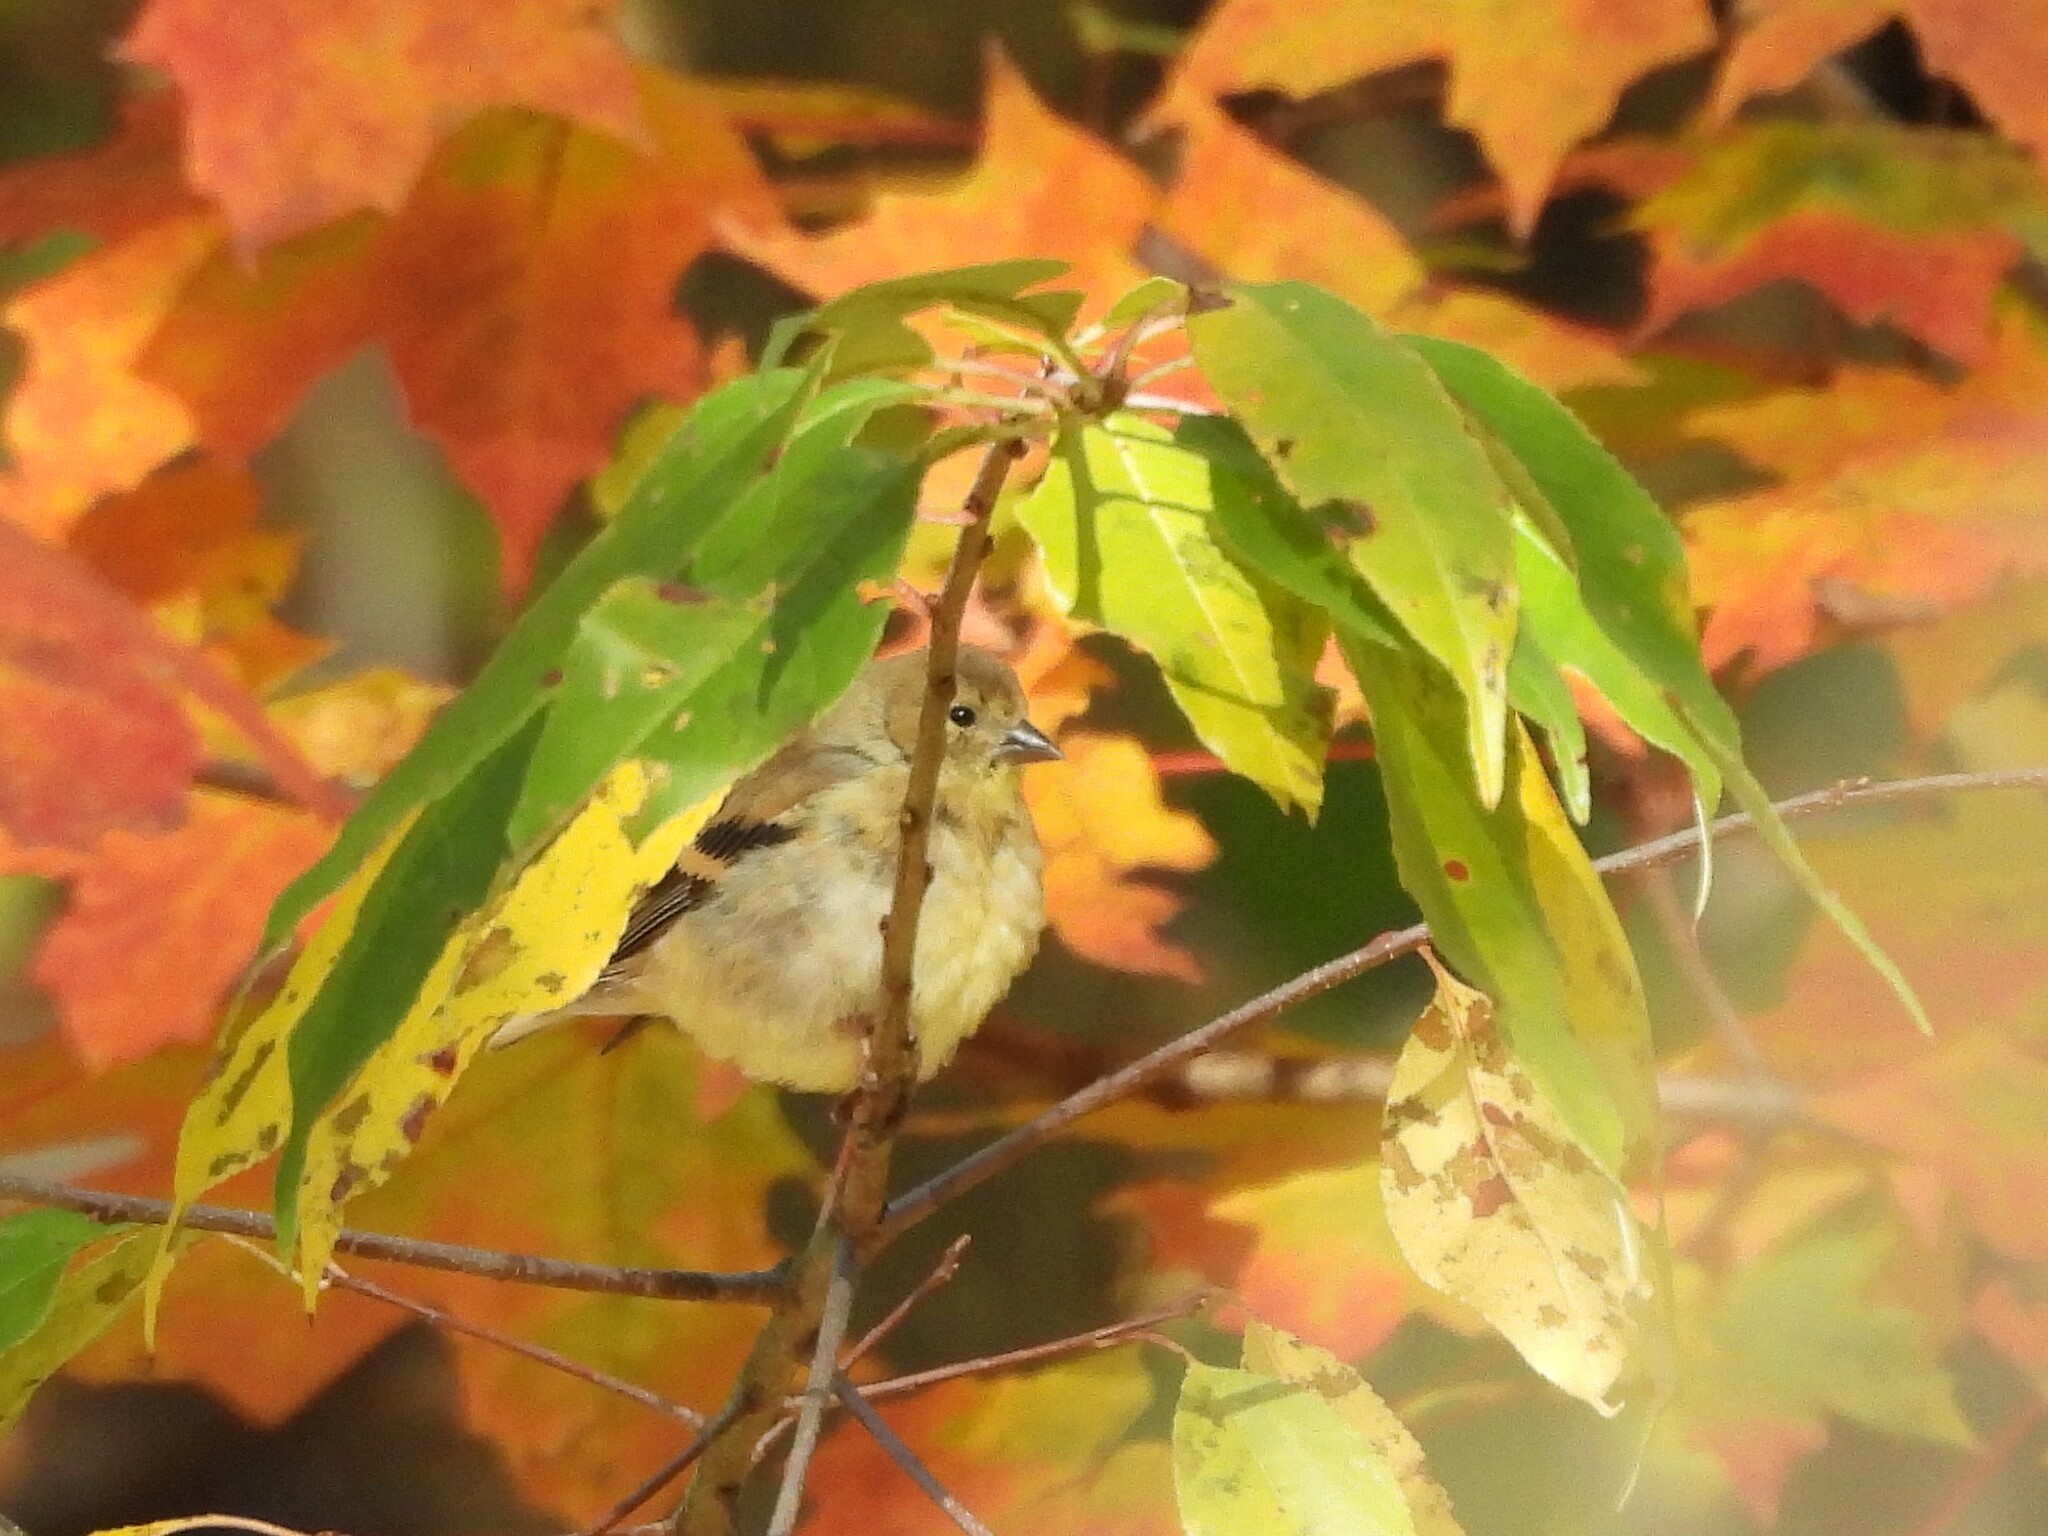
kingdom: Animalia
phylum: Chordata
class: Aves
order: Passeriformes
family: Fringillidae
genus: Spinus
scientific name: Spinus tristis
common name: American goldfinch
